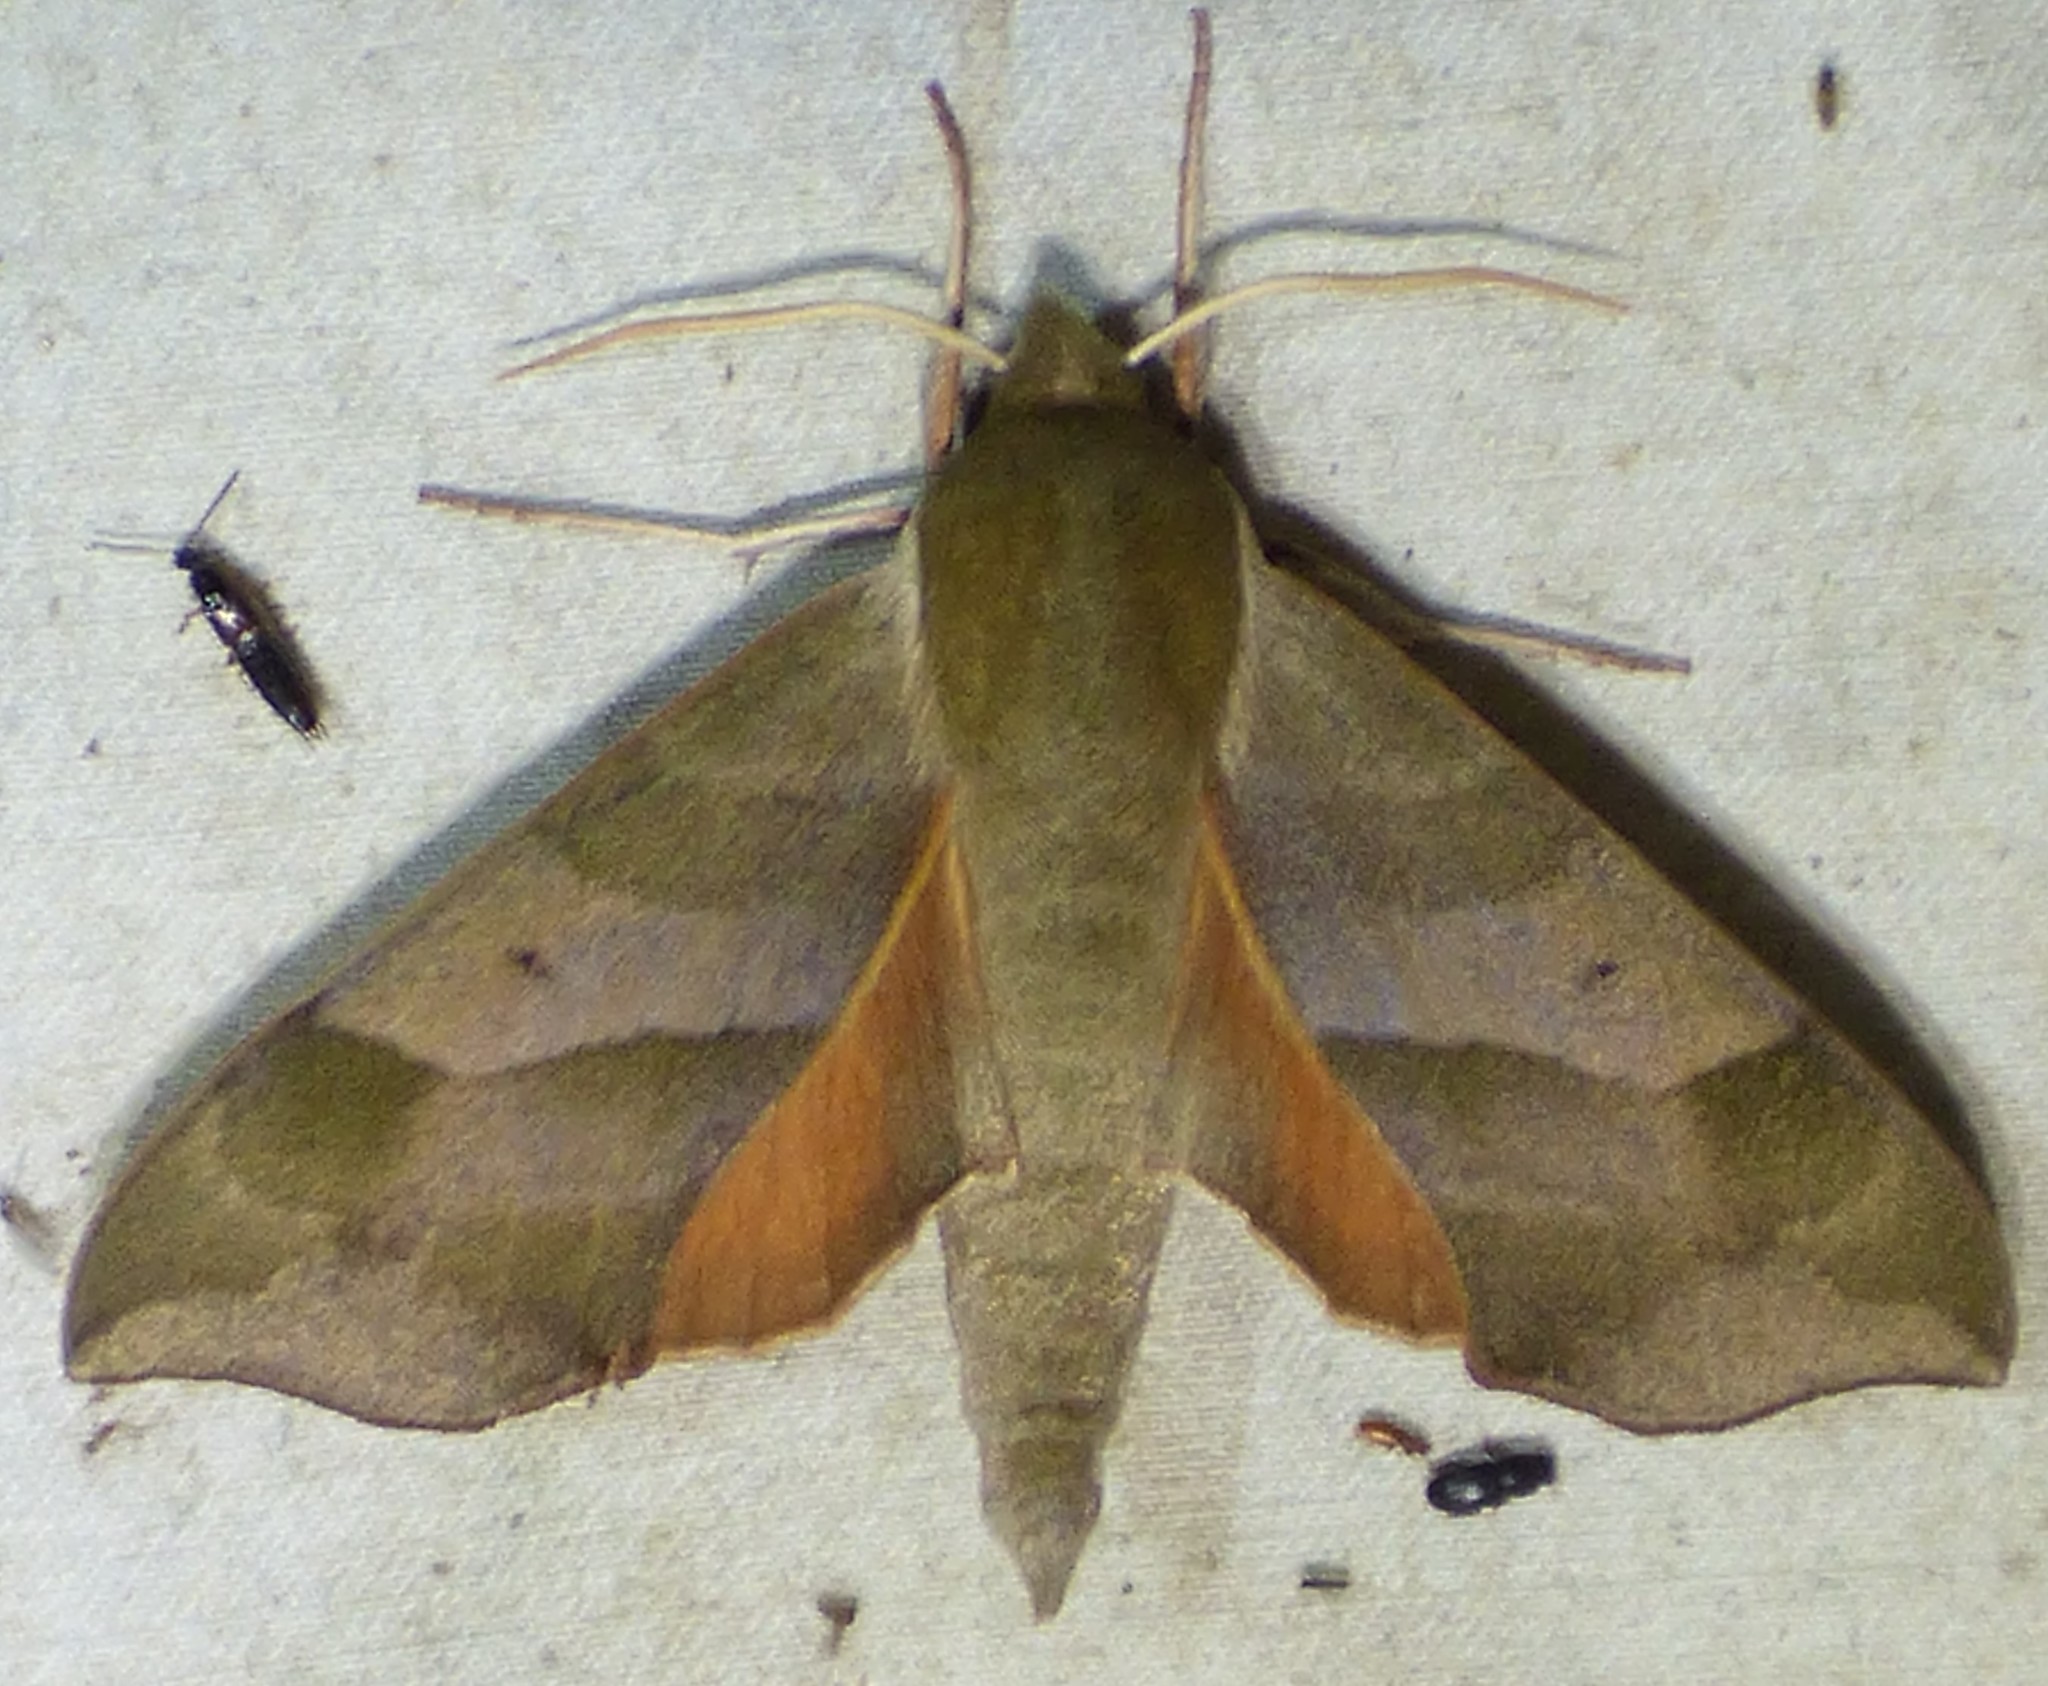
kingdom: Animalia
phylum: Arthropoda
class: Insecta
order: Lepidoptera
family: Sphingidae
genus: Darapsa
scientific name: Darapsa myron
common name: Hog sphinx
